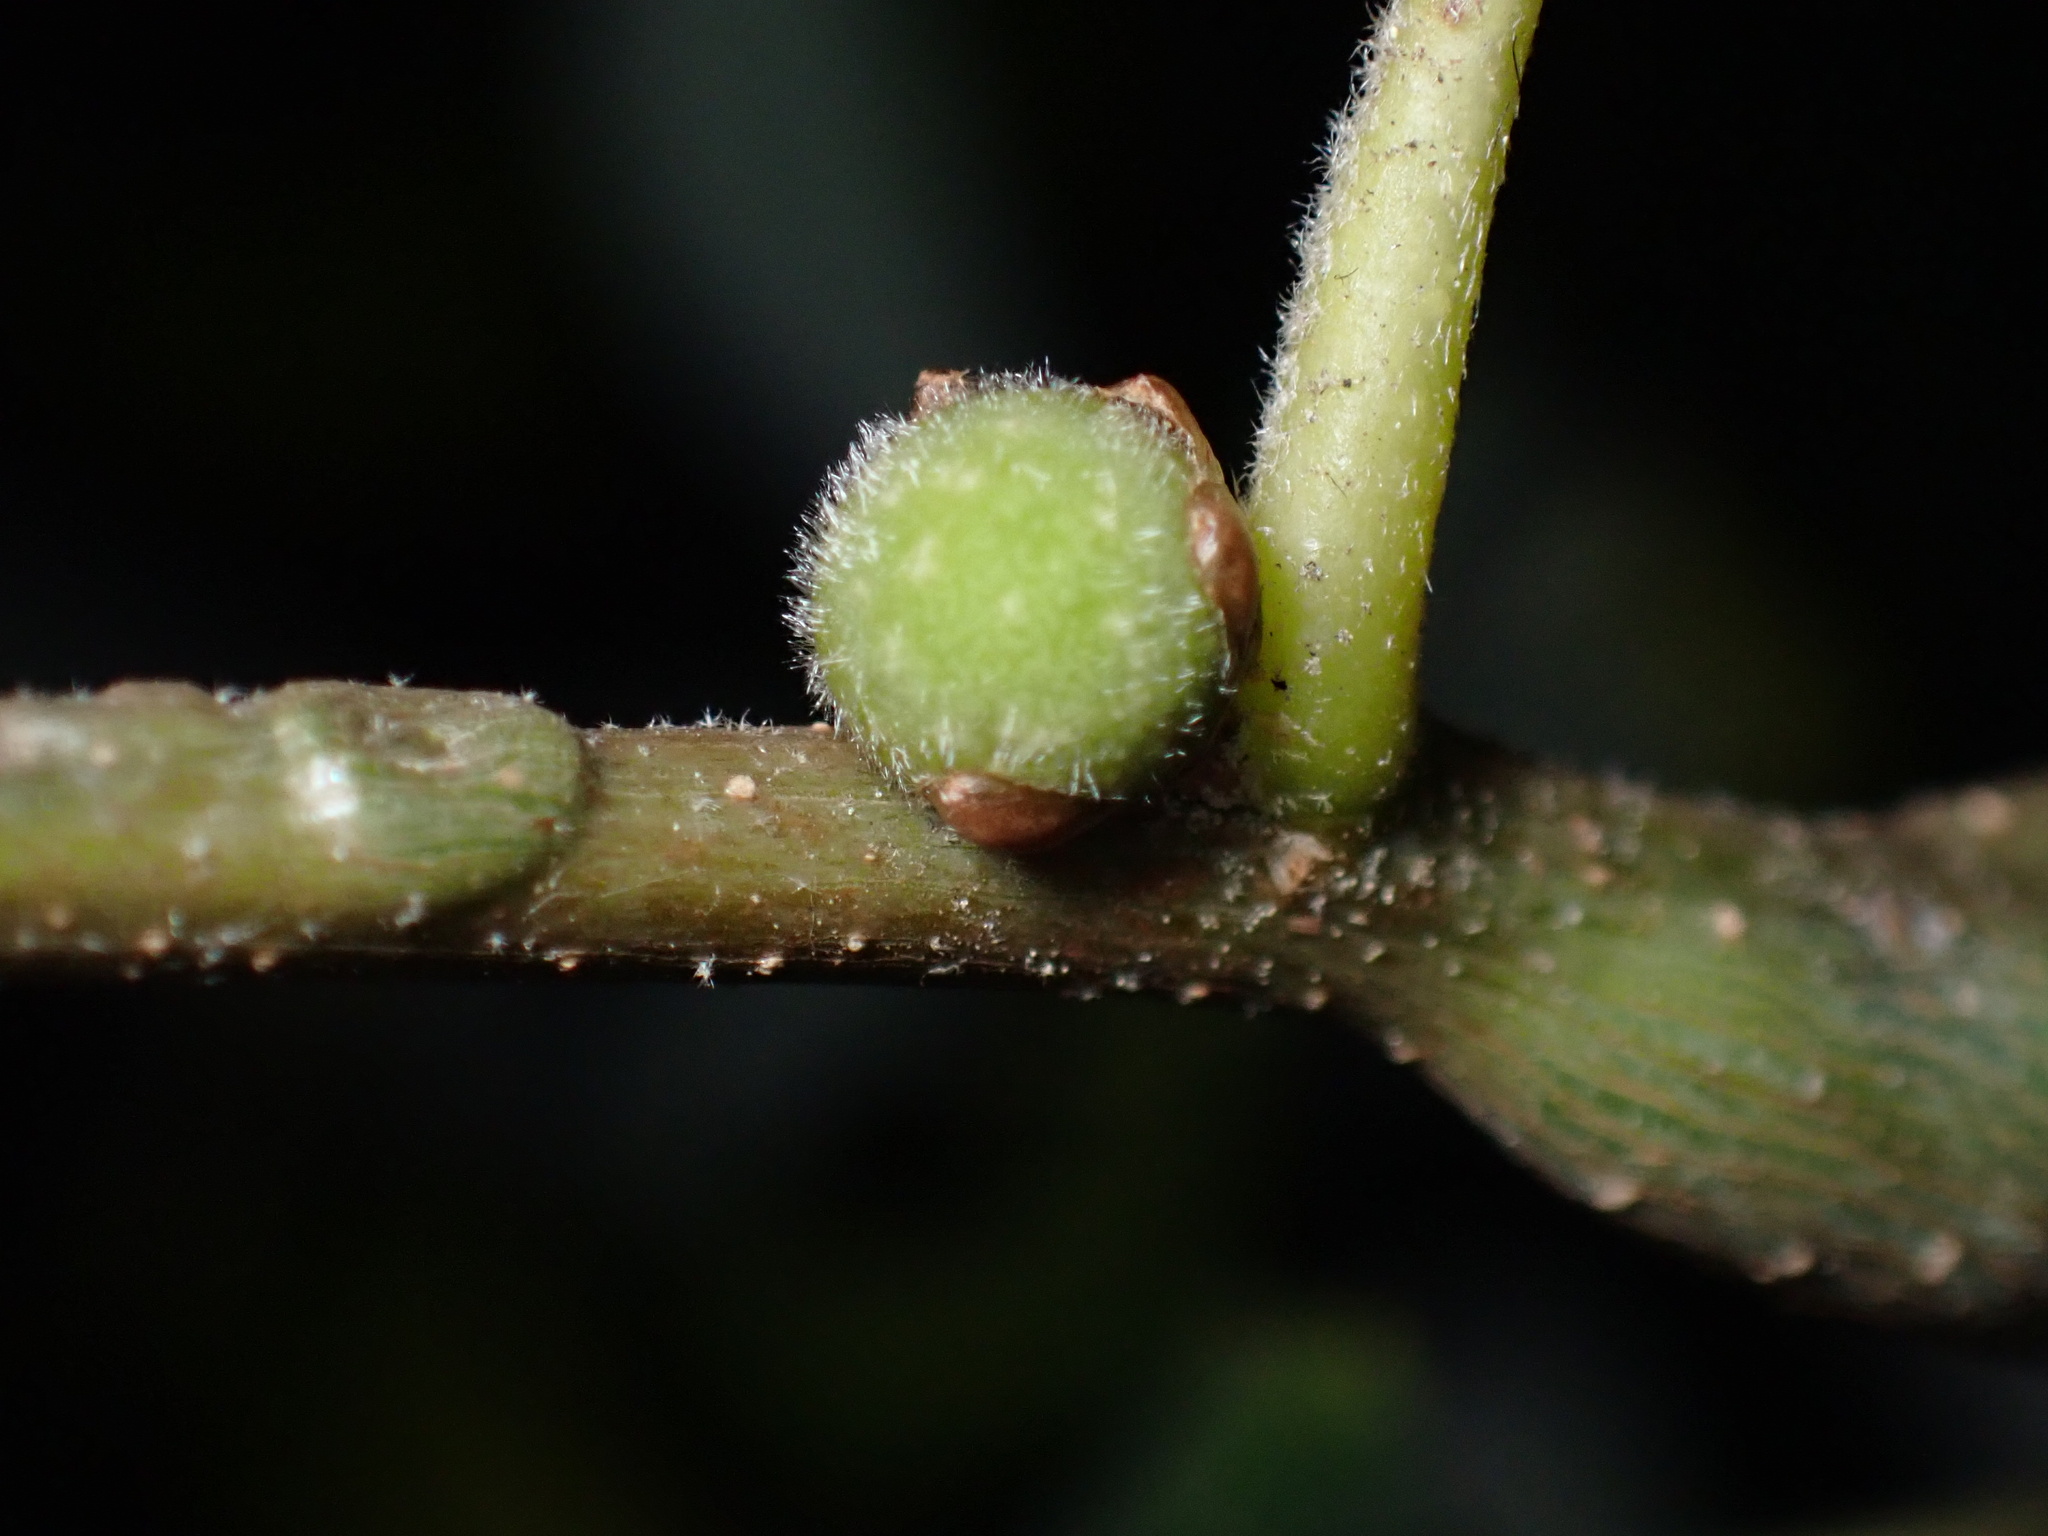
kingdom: Animalia
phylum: Arthropoda
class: Insecta
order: Hymenoptera
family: Cynipidae
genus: Callirhytis
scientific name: Callirhytis
